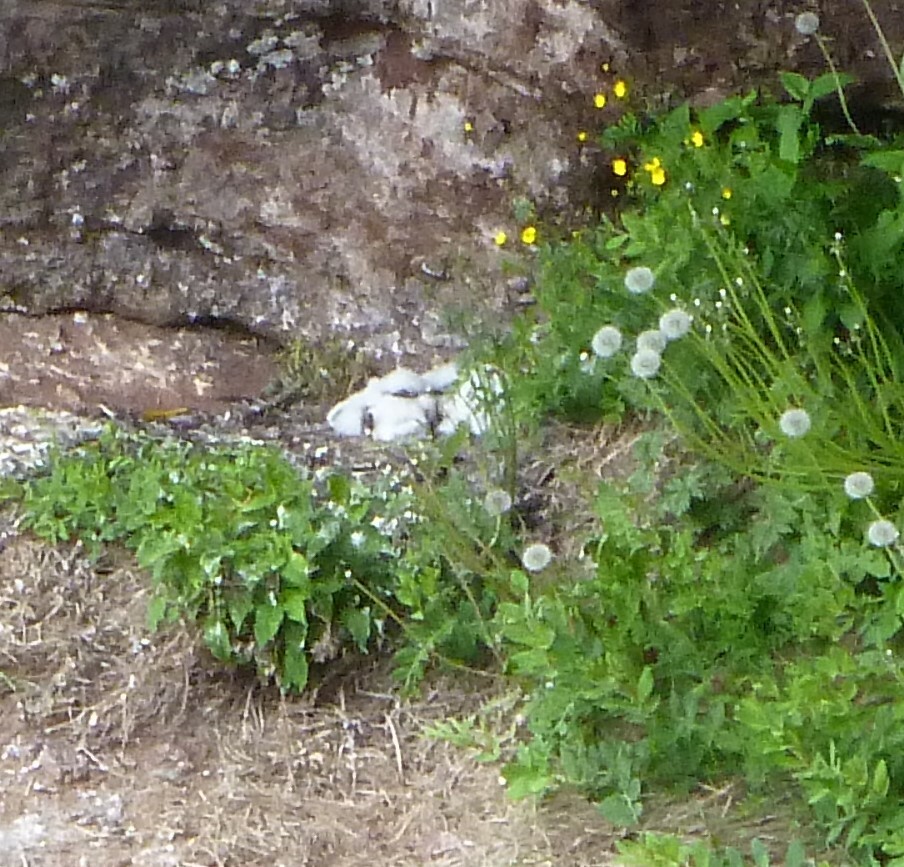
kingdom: Animalia
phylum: Chordata
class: Aves
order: Falconiformes
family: Falconidae
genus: Falco
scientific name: Falco peregrinus
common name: Peregrine falcon
